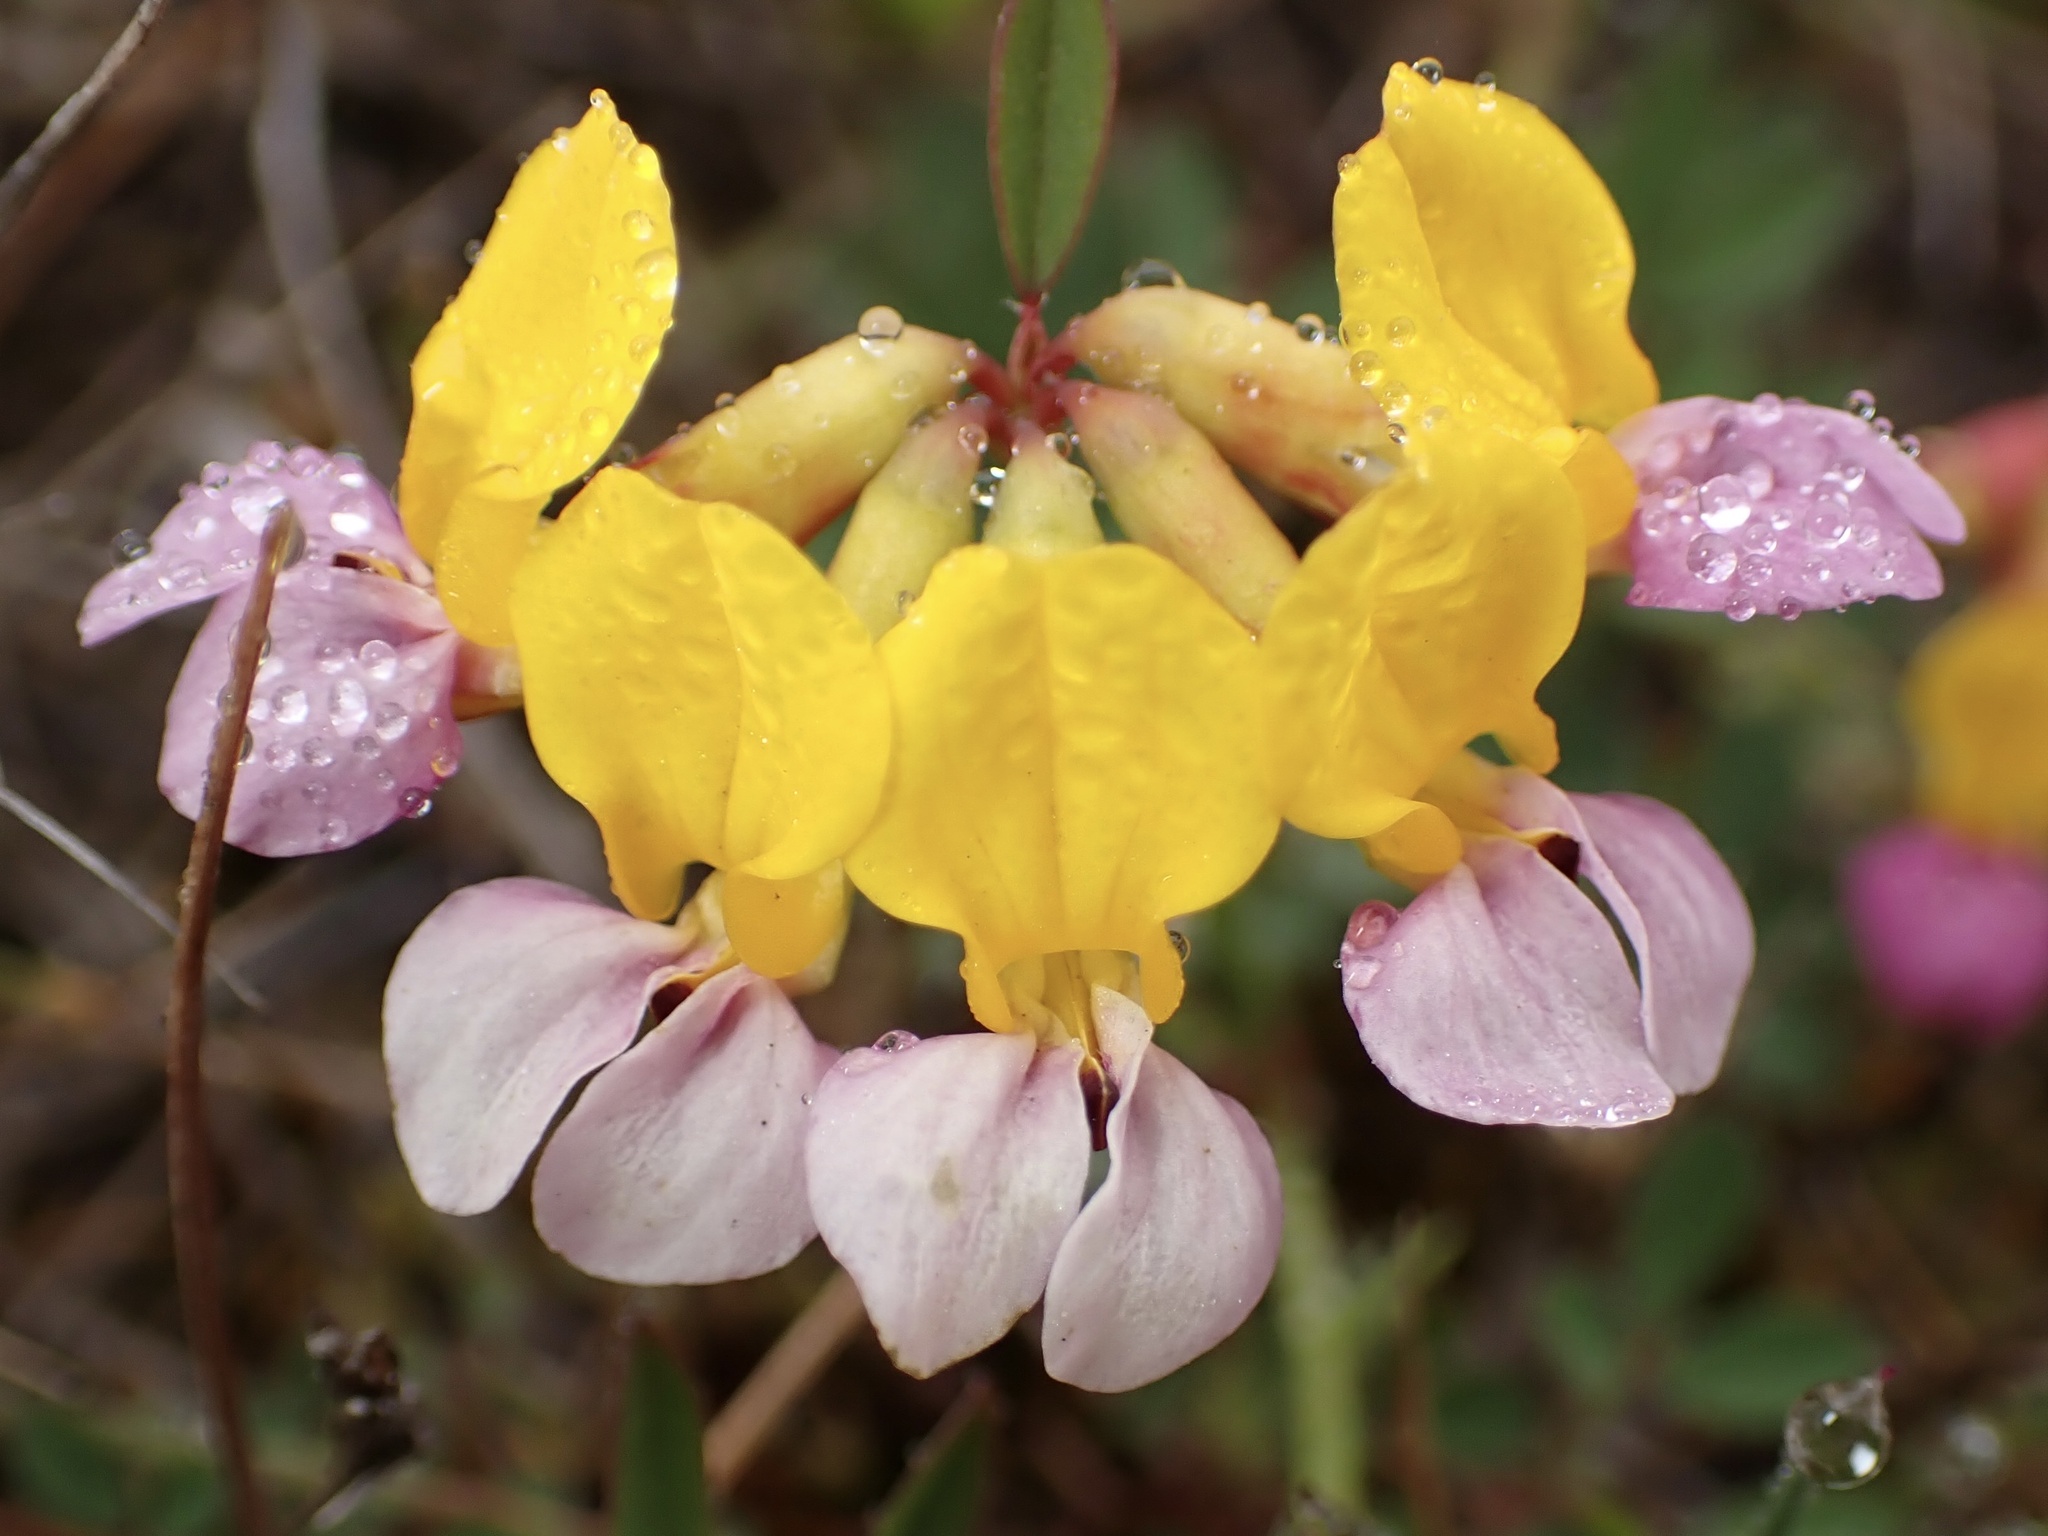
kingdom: Plantae
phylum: Tracheophyta
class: Magnoliopsida
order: Fabales
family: Fabaceae
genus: Hosackia
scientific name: Hosackia gracilis
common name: Seaside bird's-foot lotus
